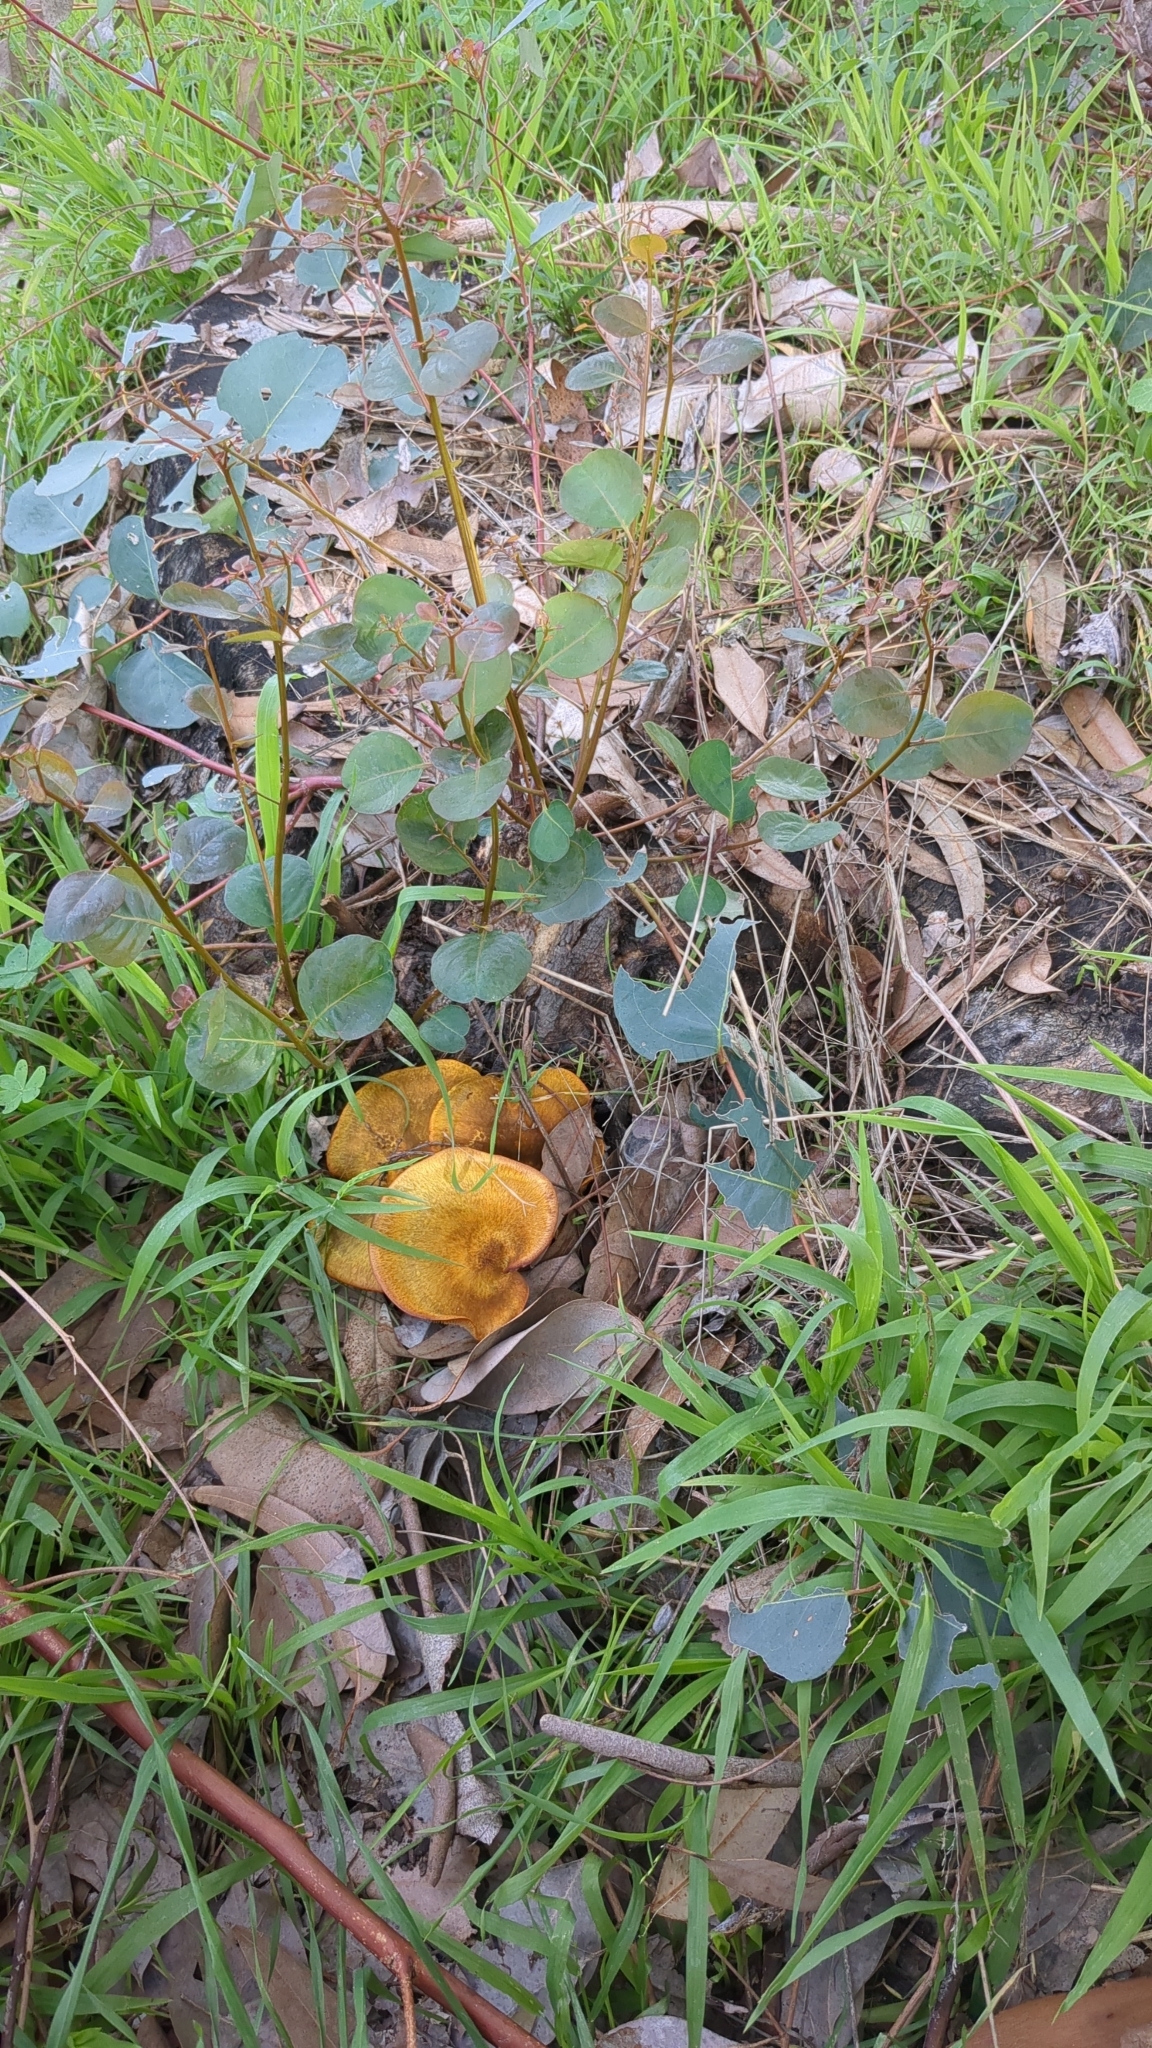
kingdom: Fungi
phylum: Basidiomycota
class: Agaricomycetes
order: Agaricales
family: Omphalotaceae
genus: Omphalotus
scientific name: Omphalotus olivascens
